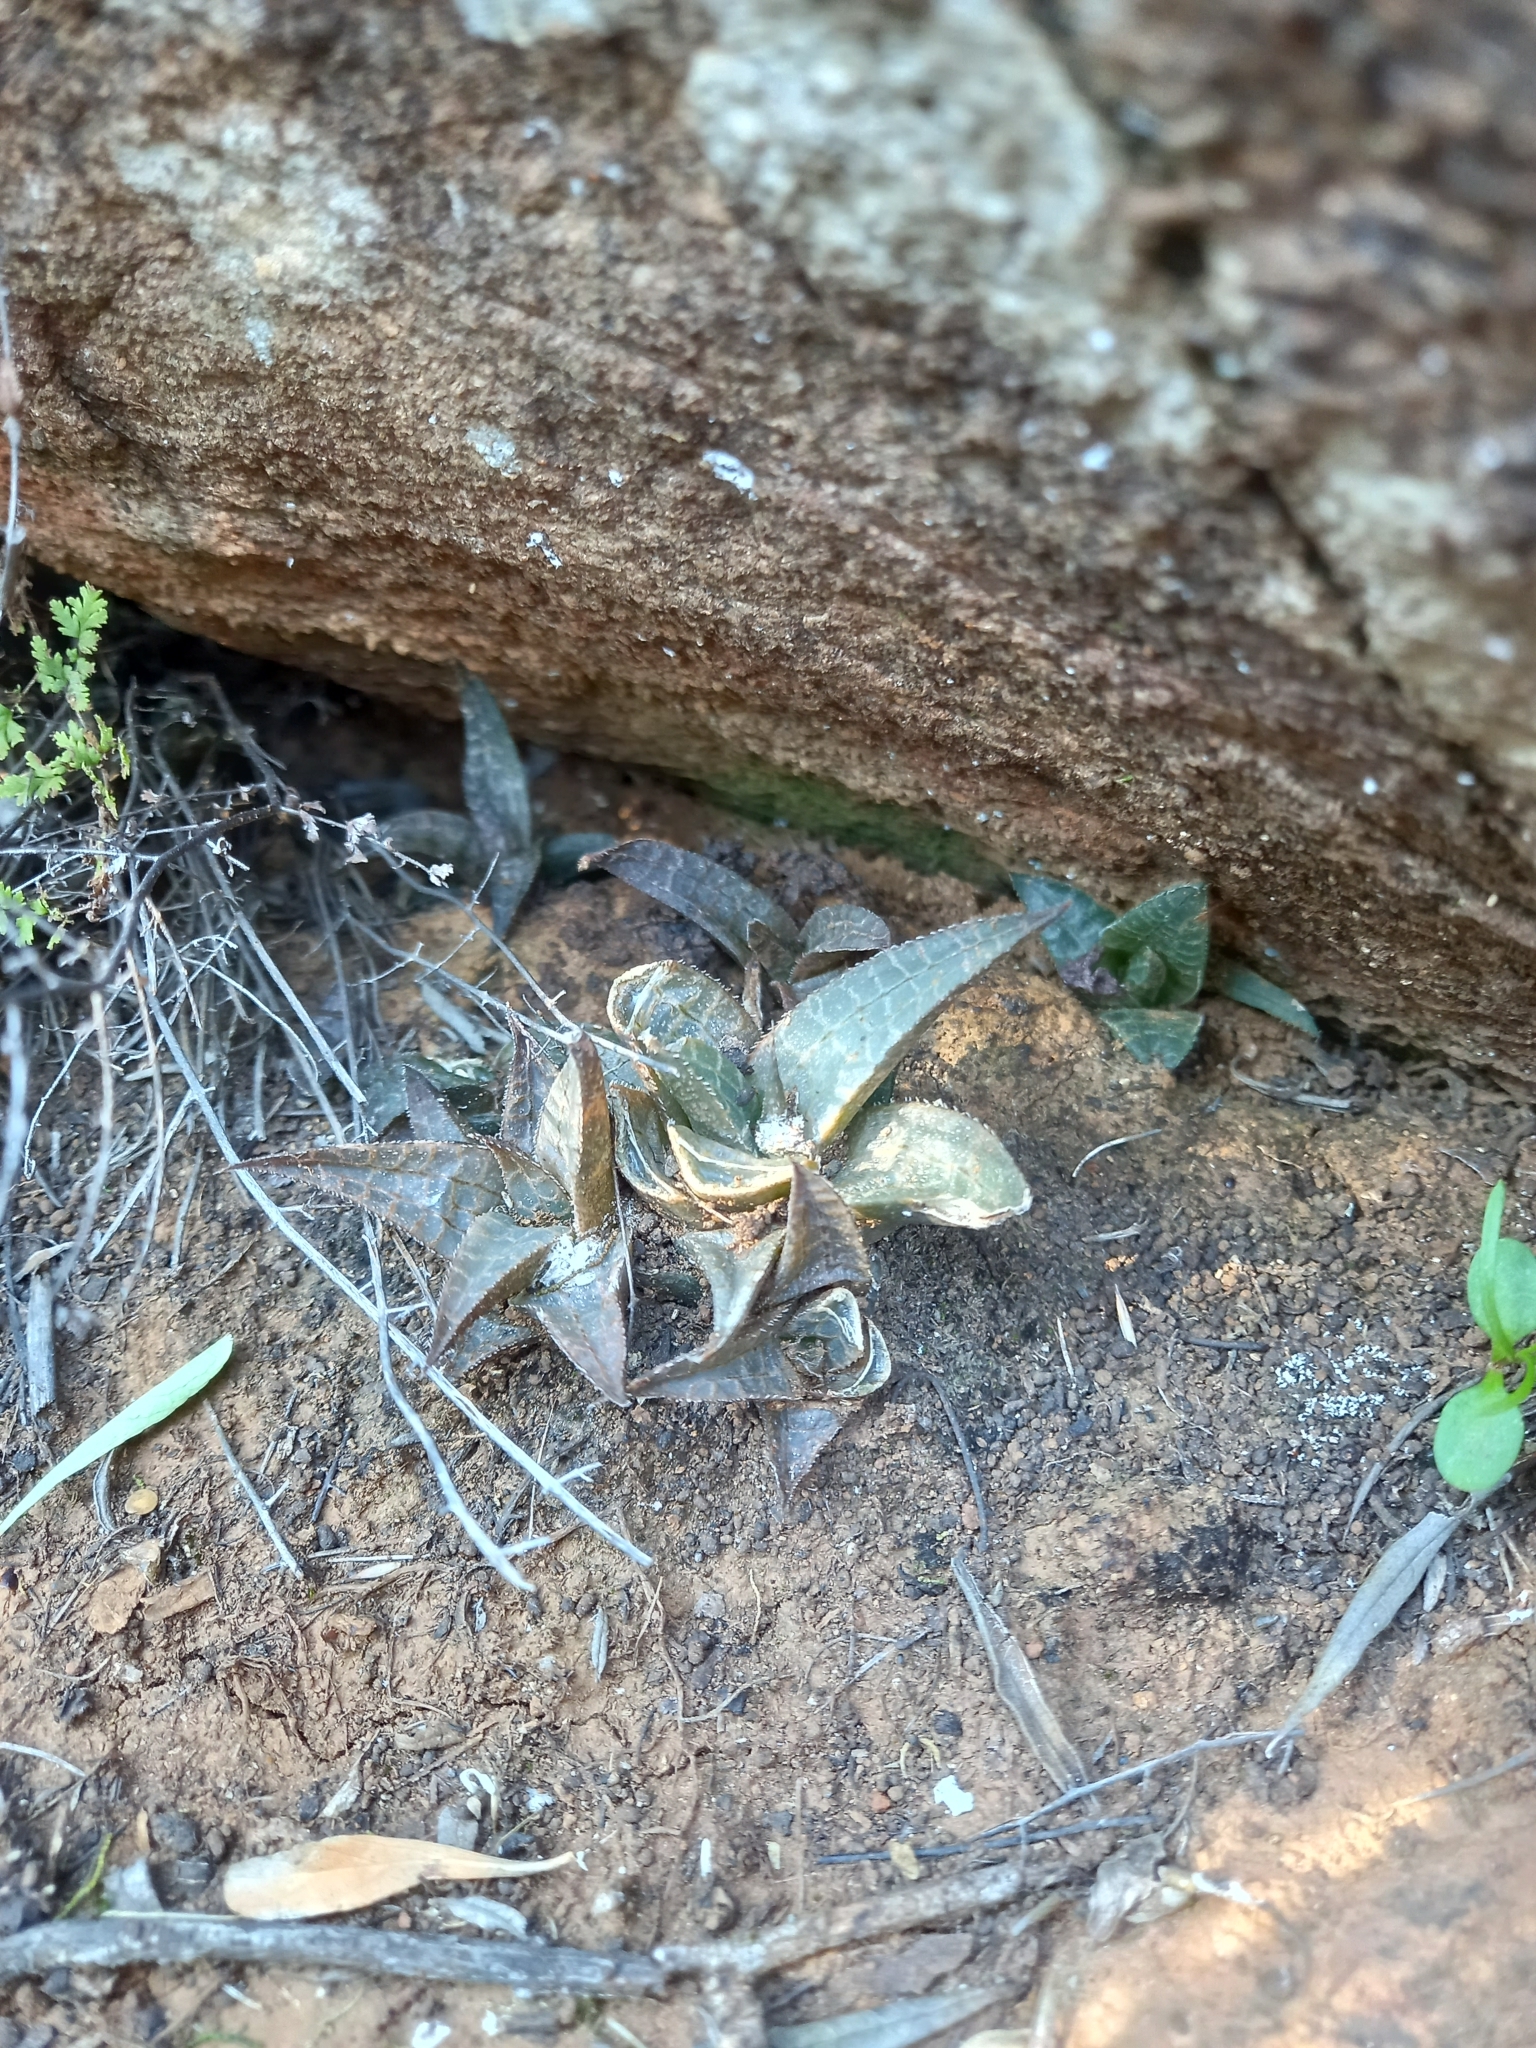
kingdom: Plantae
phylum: Tracheophyta
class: Liliopsida
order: Asparagales
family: Asphodelaceae
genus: Haworthiopsis
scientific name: Haworthiopsis tessellata
